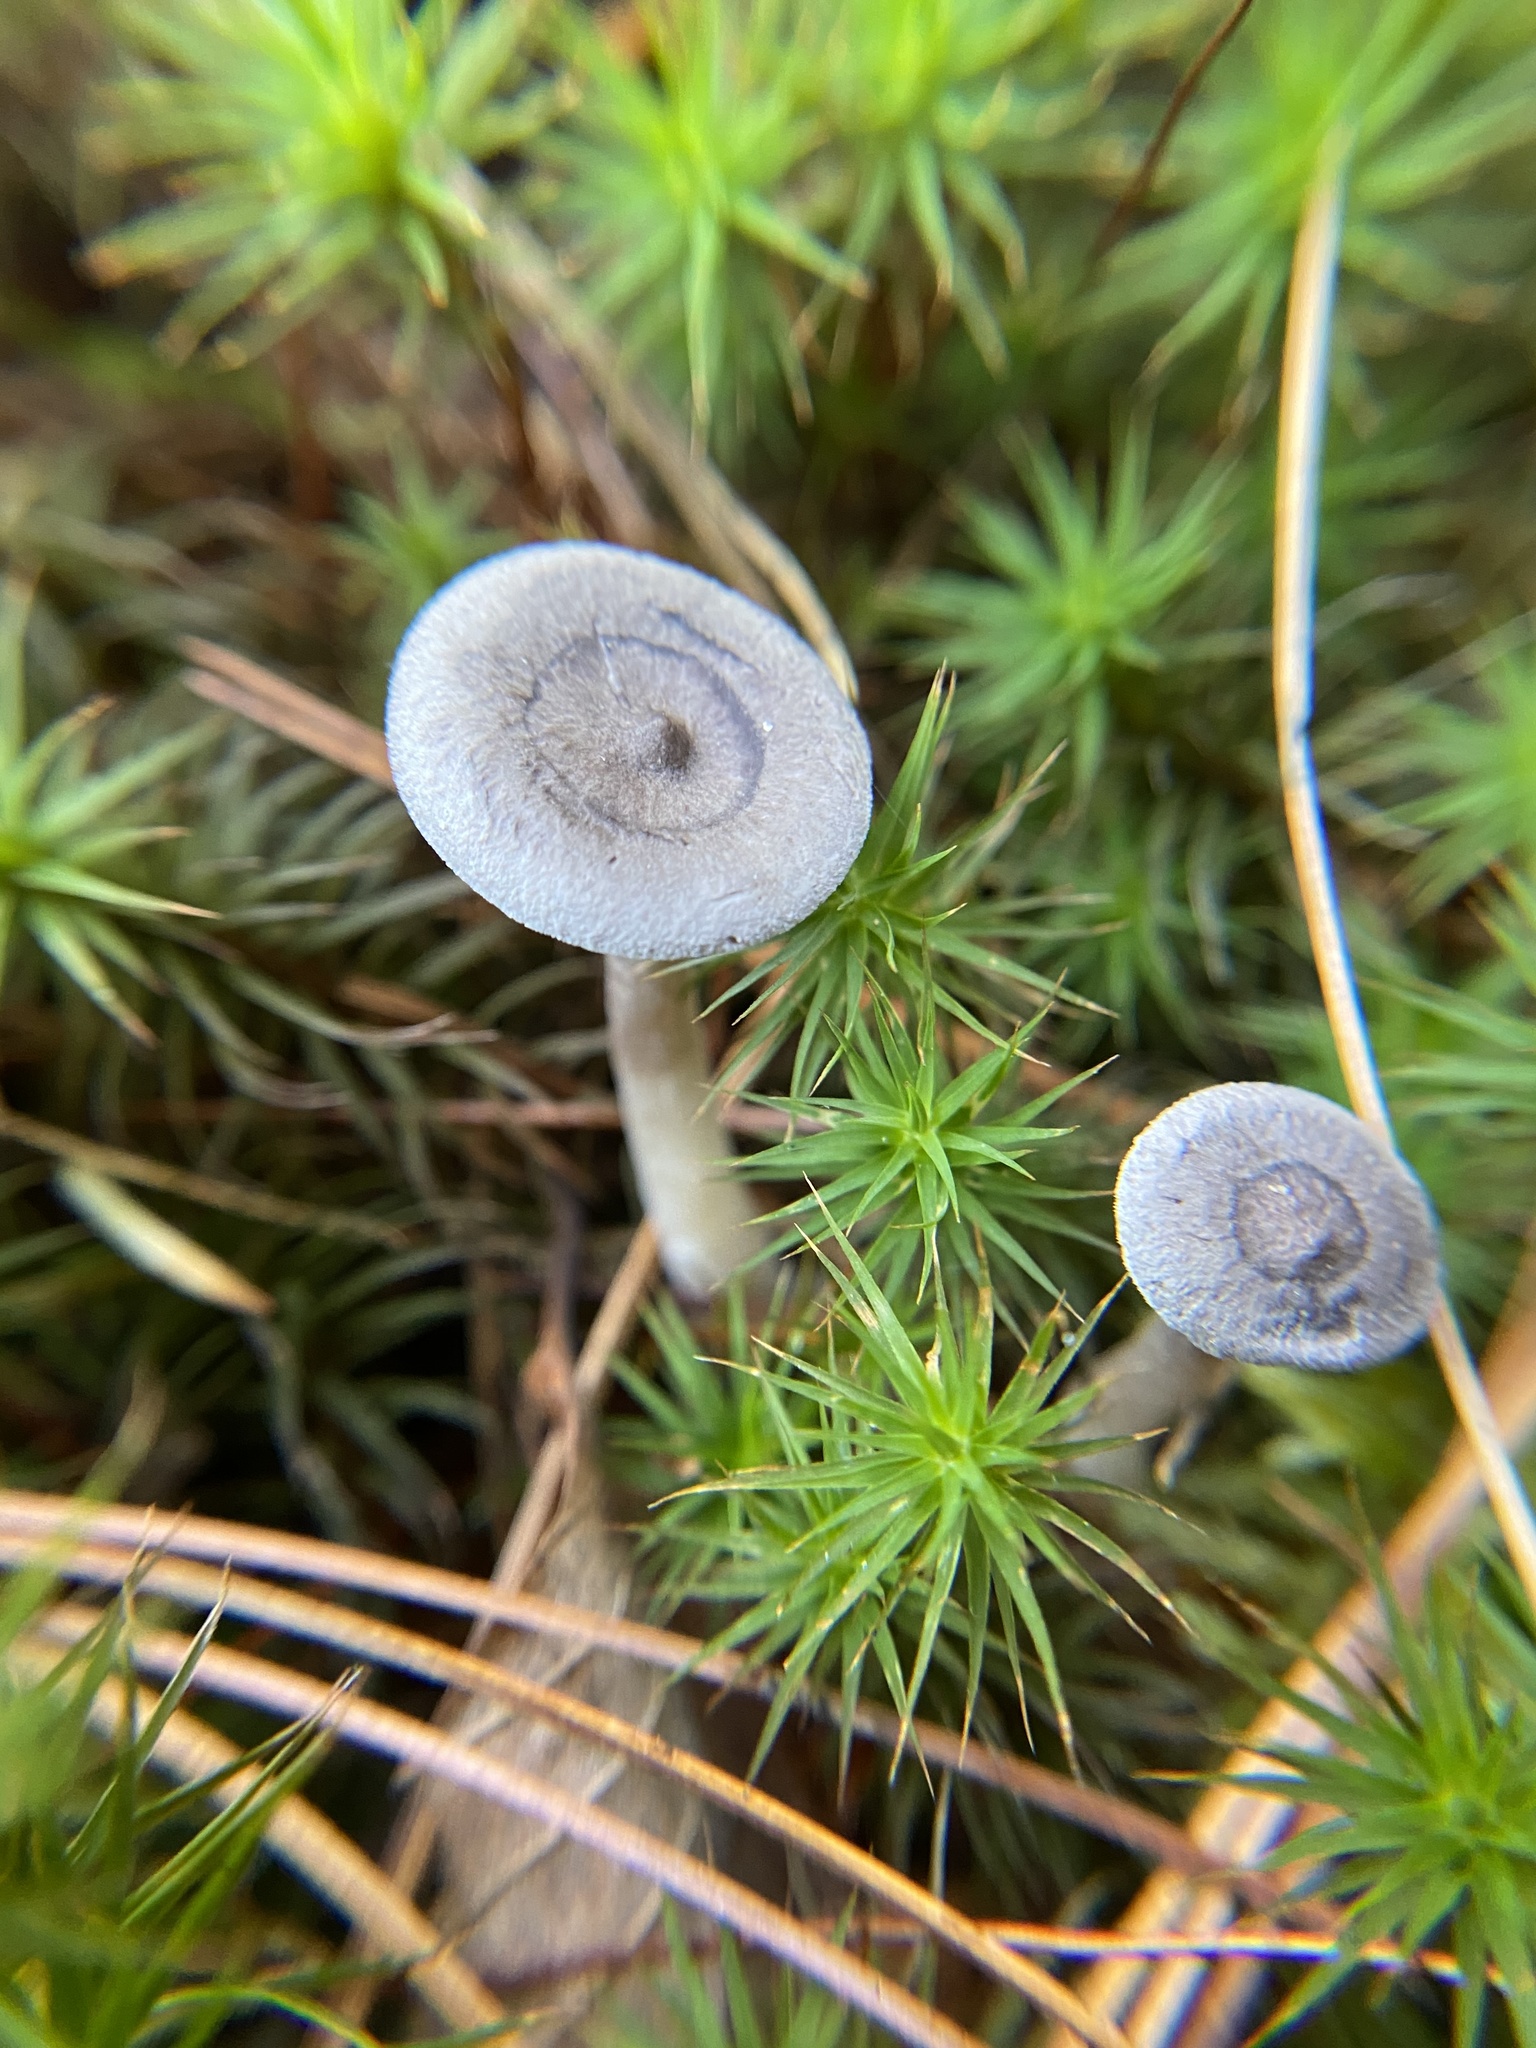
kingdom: Fungi
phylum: Basidiomycota
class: Agaricomycetes
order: Agaricales
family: Hygrophoraceae
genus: Cantharellula
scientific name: Cantharellula umbonata
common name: The humpback
